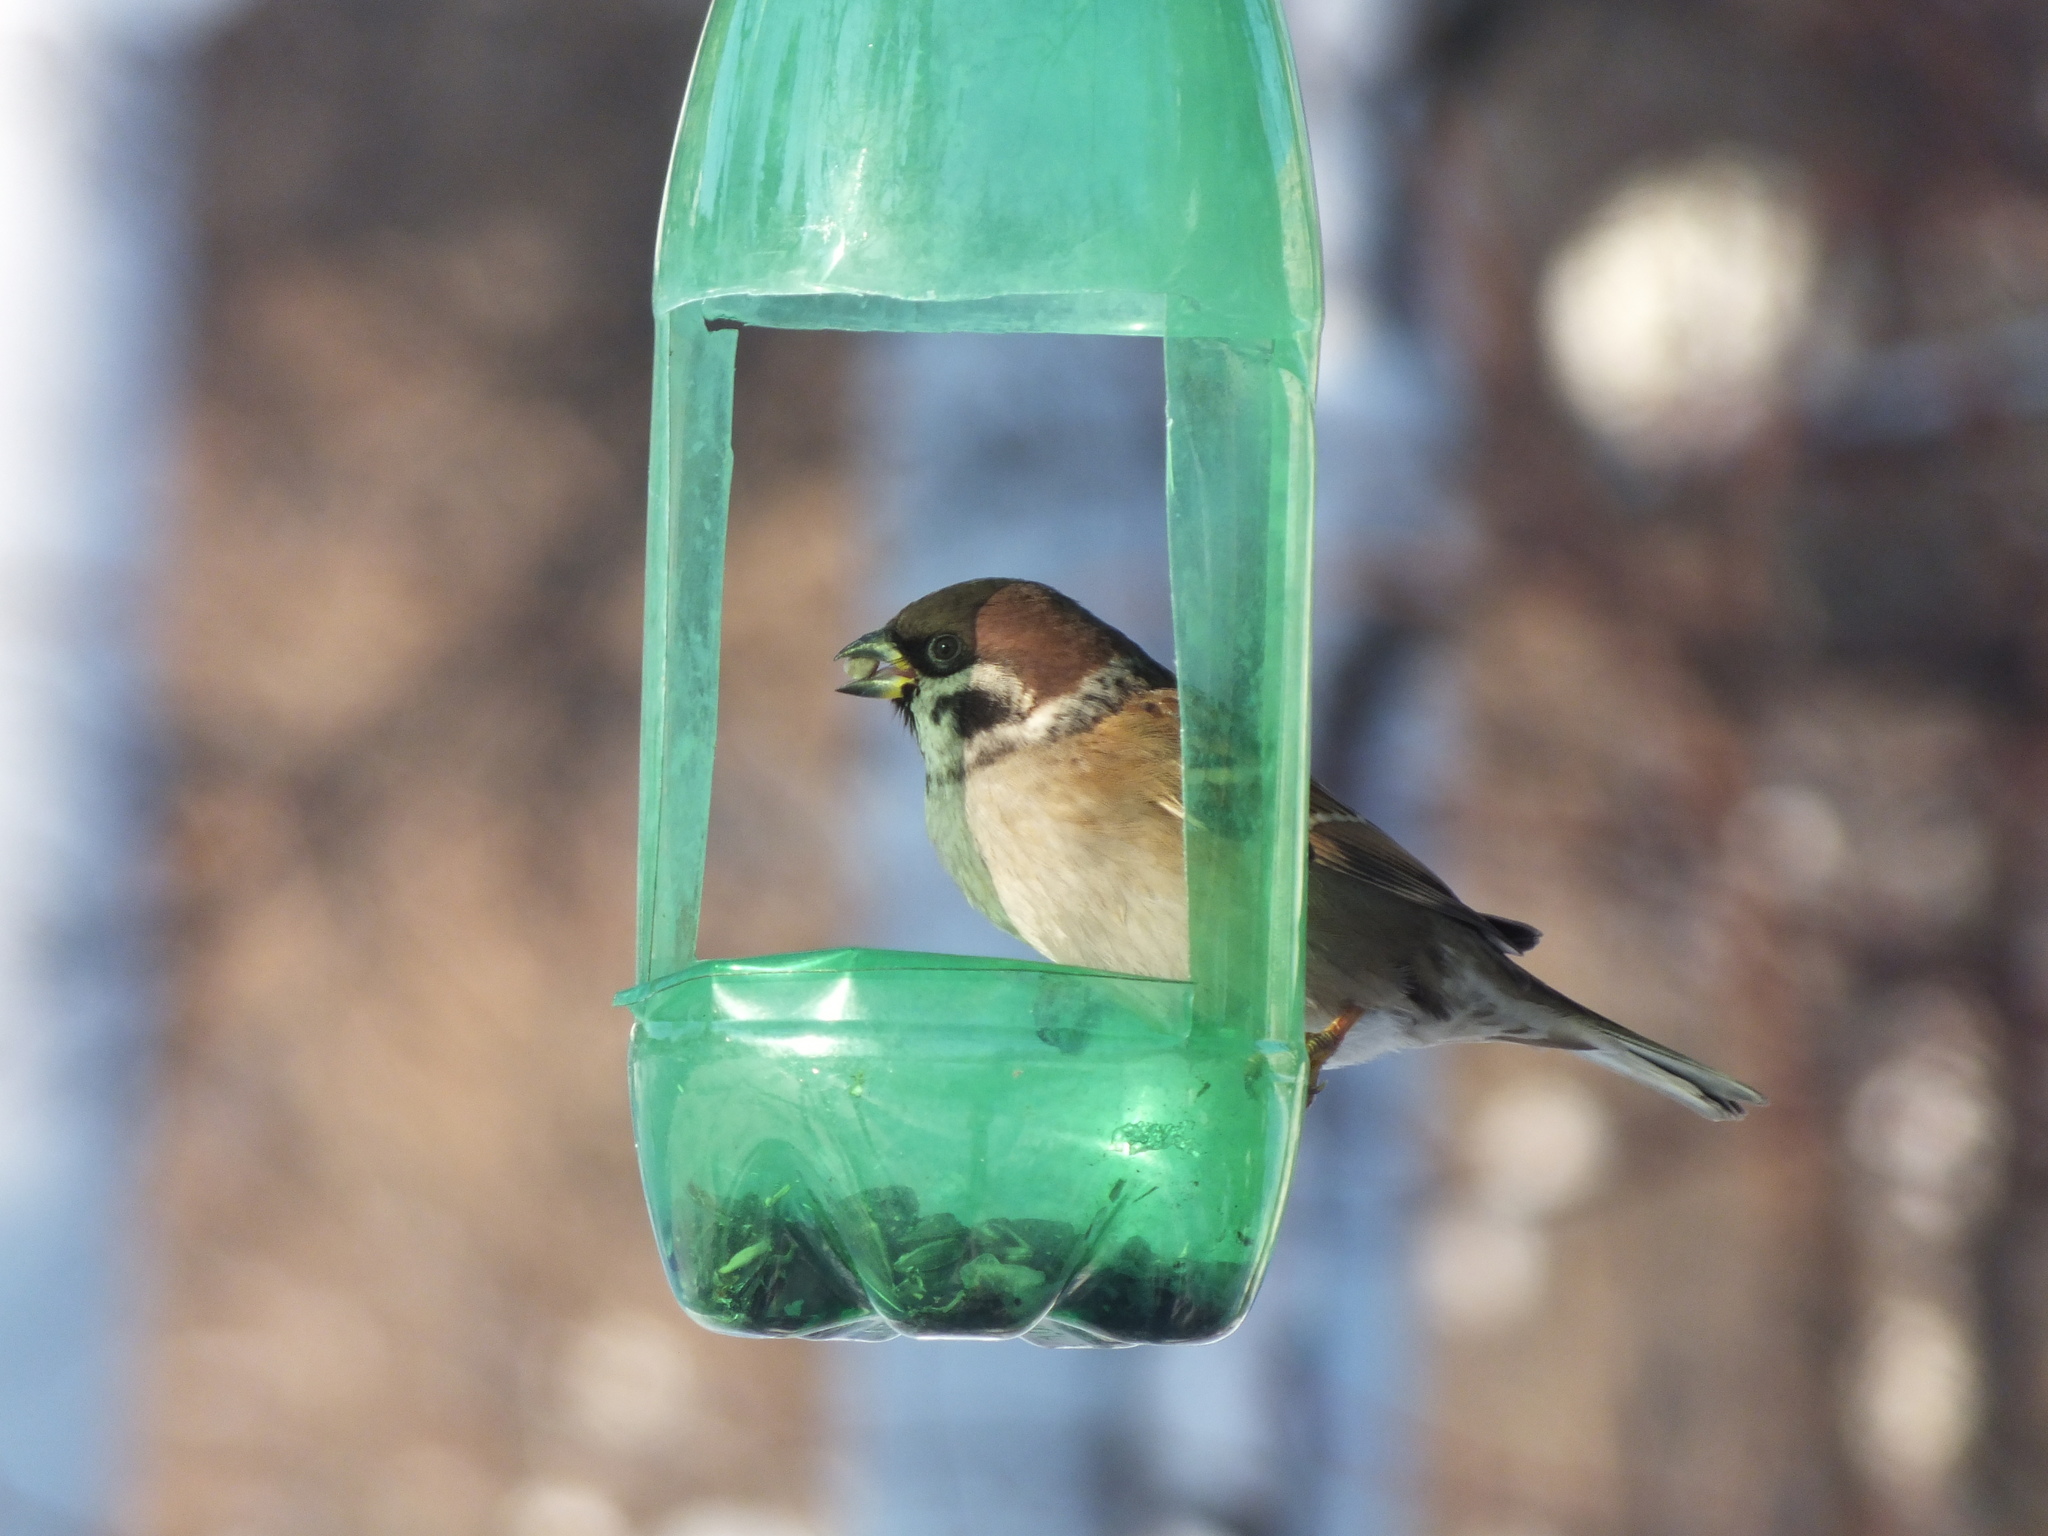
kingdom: Animalia
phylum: Chordata
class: Aves
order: Passeriformes
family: Passeridae
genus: Passer
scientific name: Passer montanus
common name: Eurasian tree sparrow
